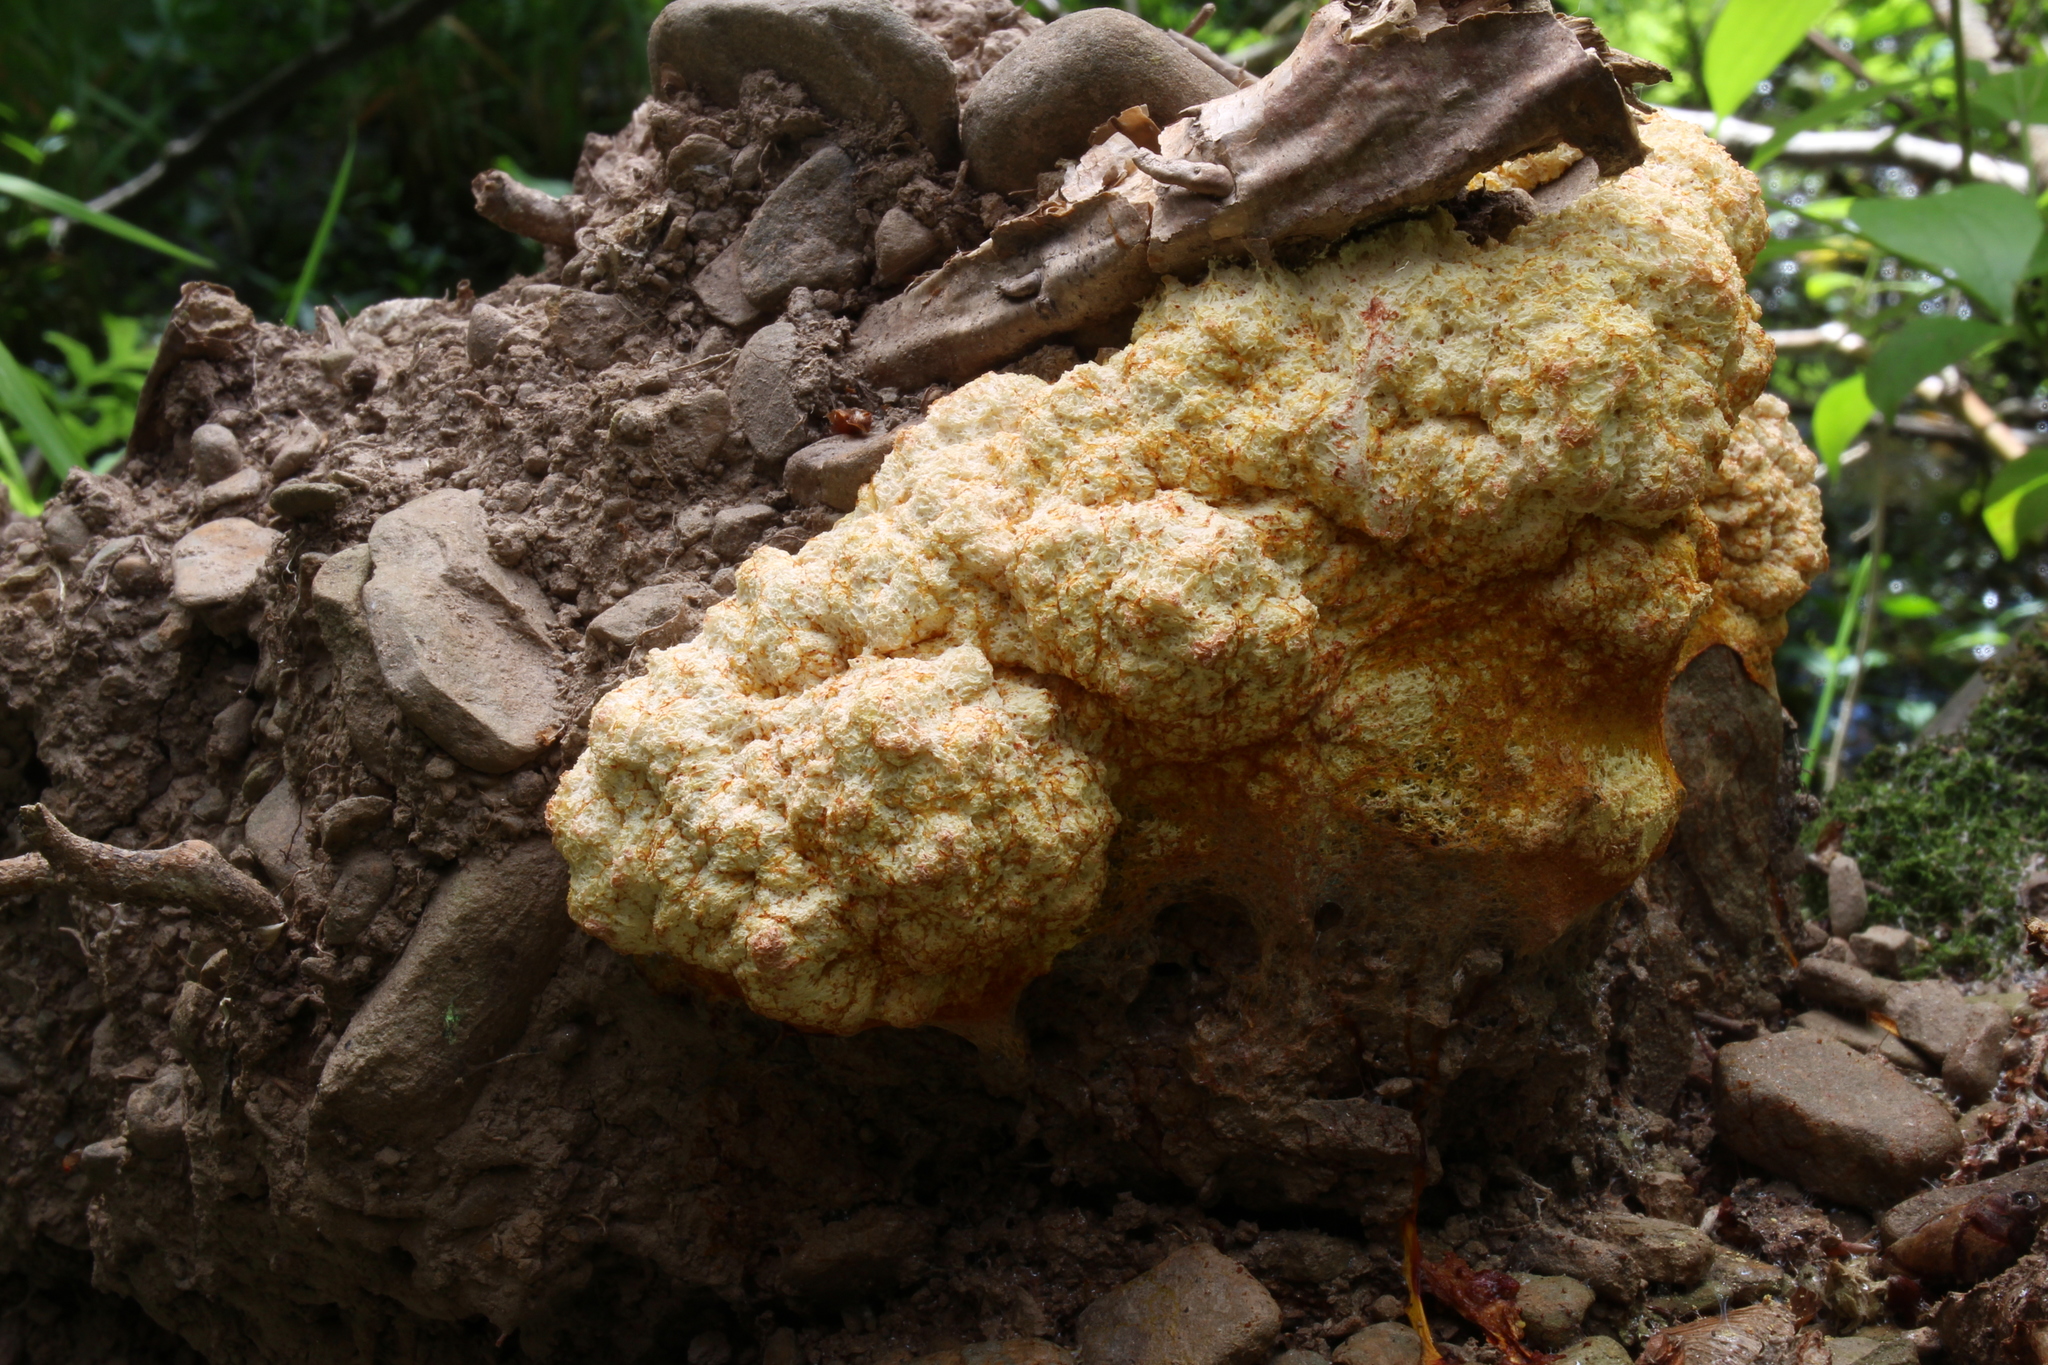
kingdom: Protozoa
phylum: Mycetozoa
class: Myxomycetes
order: Physarales
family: Physaraceae
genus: Fuligo
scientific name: Fuligo septica
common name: Dog vomit slime mold
